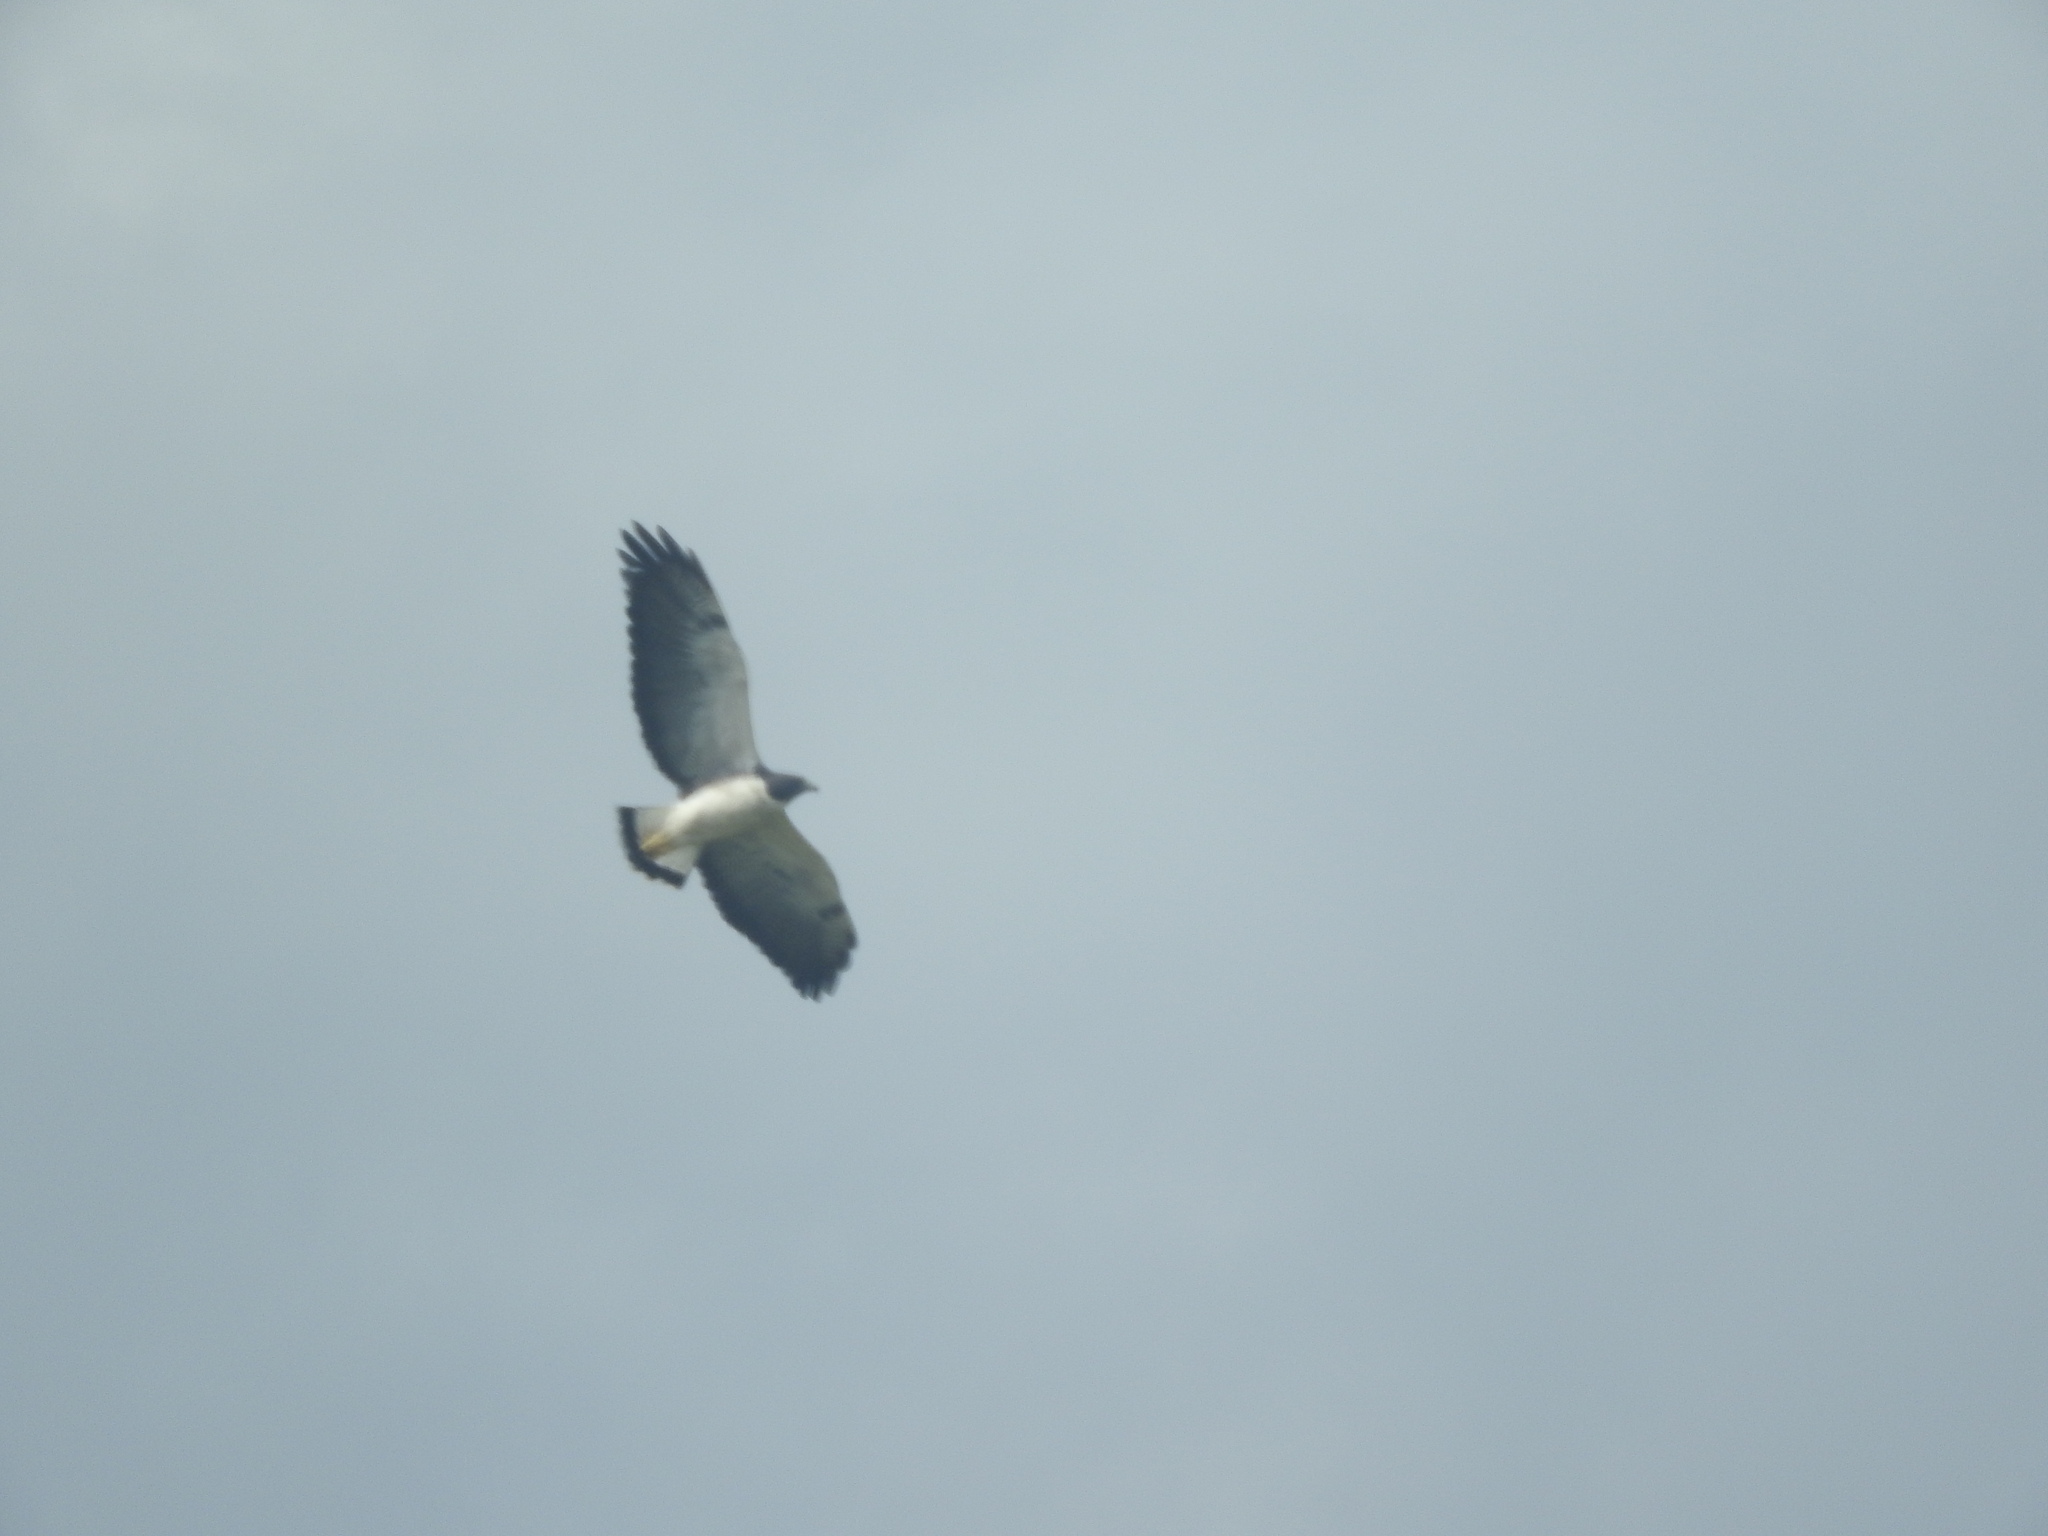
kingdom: Animalia
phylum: Chordata
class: Aves
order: Accipitriformes
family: Accipitridae
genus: Buteo
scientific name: Buteo albicaudatus
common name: White-tailed hawk
